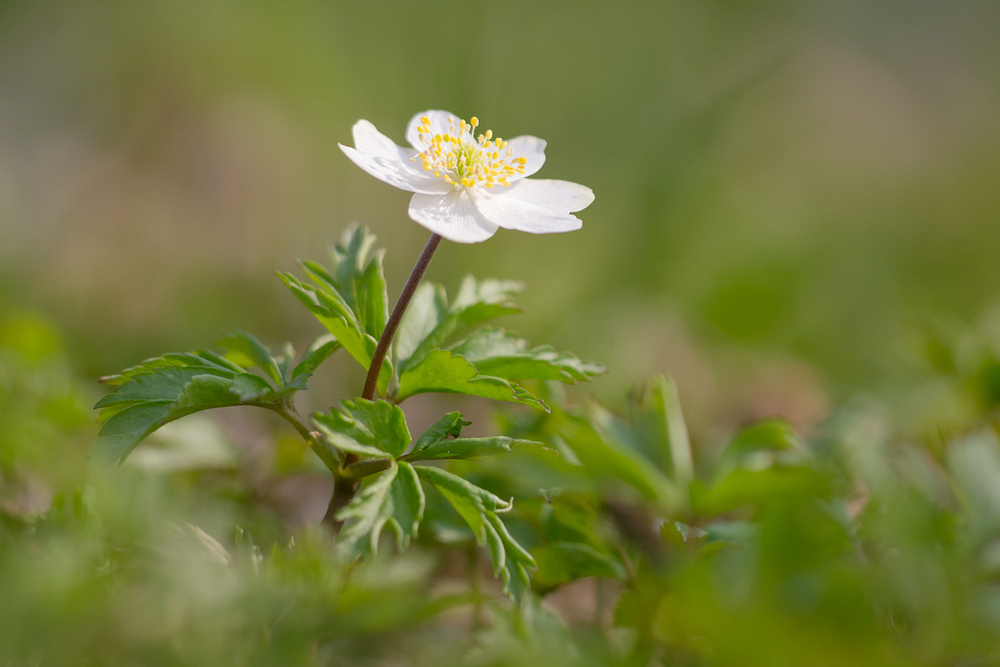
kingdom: Plantae
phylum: Tracheophyta
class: Magnoliopsida
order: Ranunculales
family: Ranunculaceae
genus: Anemone
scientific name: Anemone nemorosa
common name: Wood anemone
